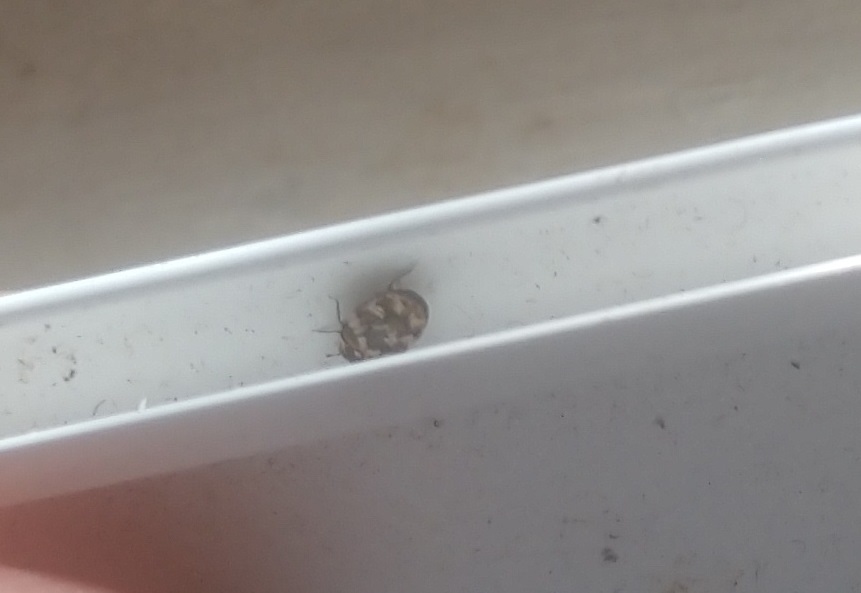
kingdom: Animalia
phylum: Arthropoda
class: Insecta
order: Coleoptera
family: Dermestidae
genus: Anthrenus
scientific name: Anthrenus verbasci
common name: Varied carpet beetle
